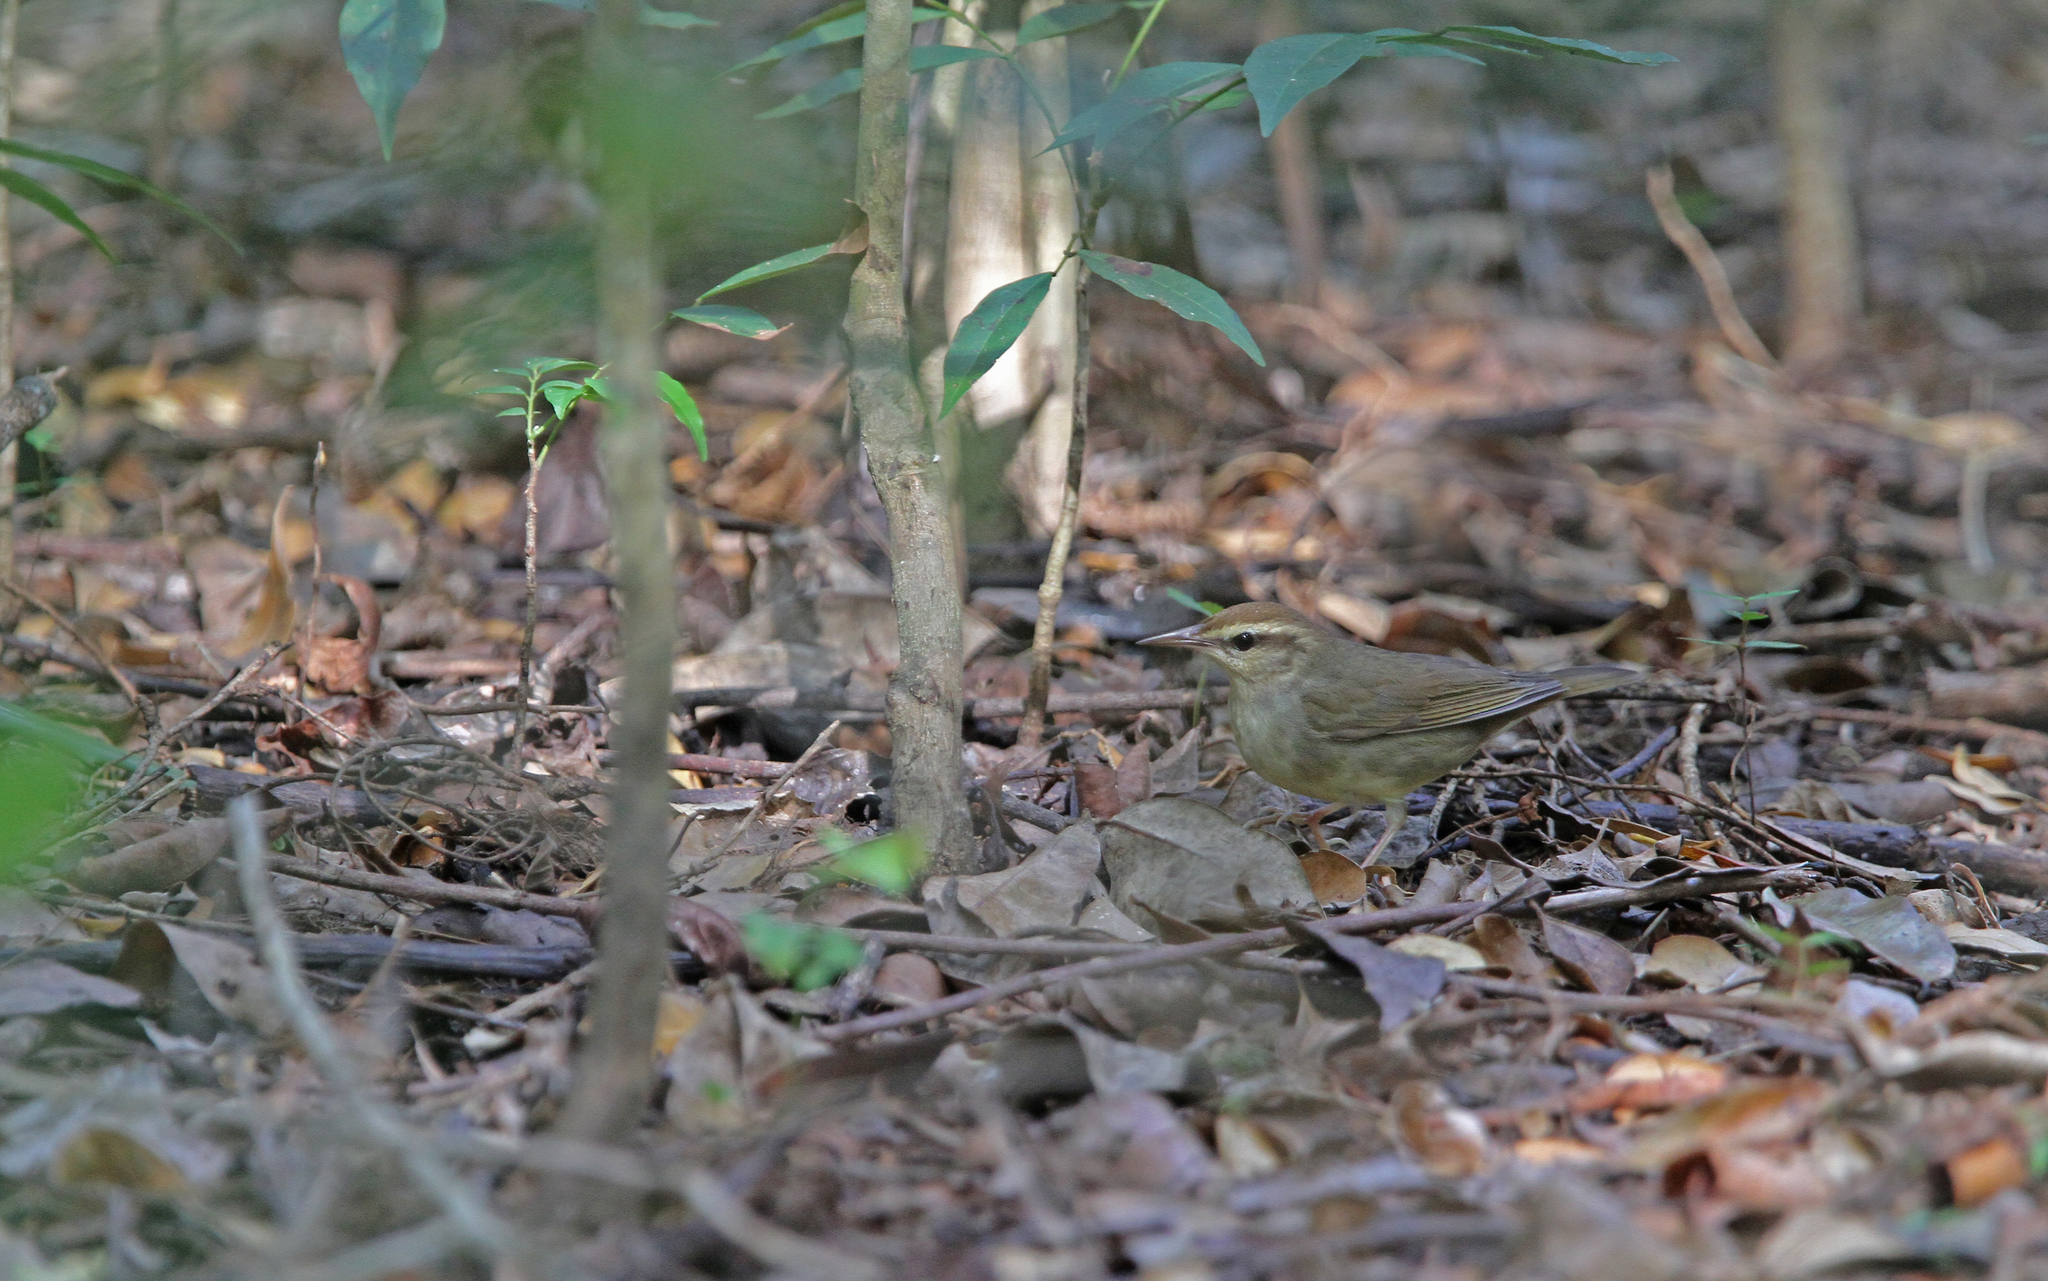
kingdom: Animalia
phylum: Chordata
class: Aves
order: Passeriformes
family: Parulidae
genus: Limnothlypis
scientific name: Limnothlypis swainsonii
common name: Swainson's warbler
